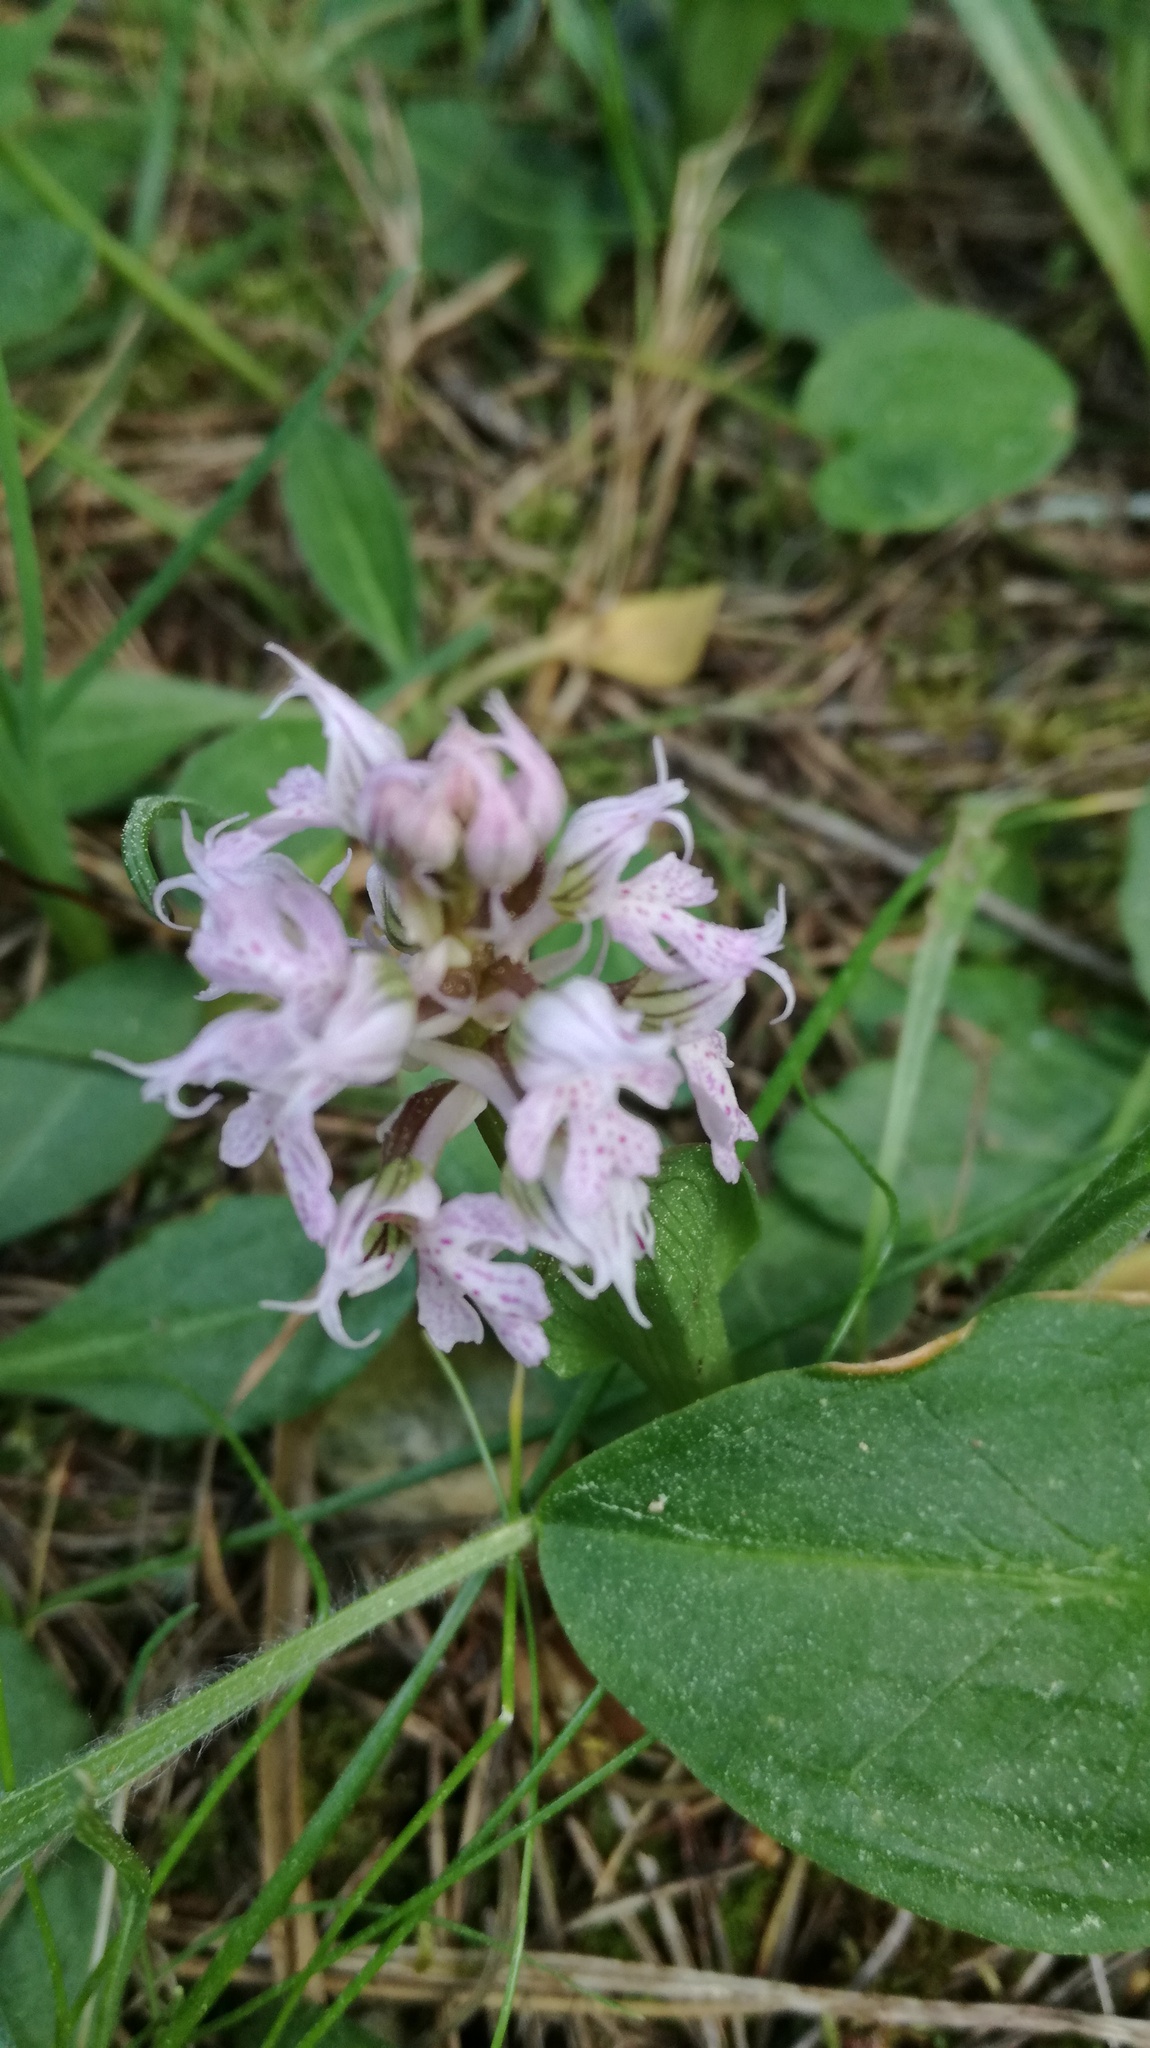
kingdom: Plantae
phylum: Tracheophyta
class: Liliopsida
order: Asparagales
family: Orchidaceae
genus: Orchis
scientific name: Orchis italica
